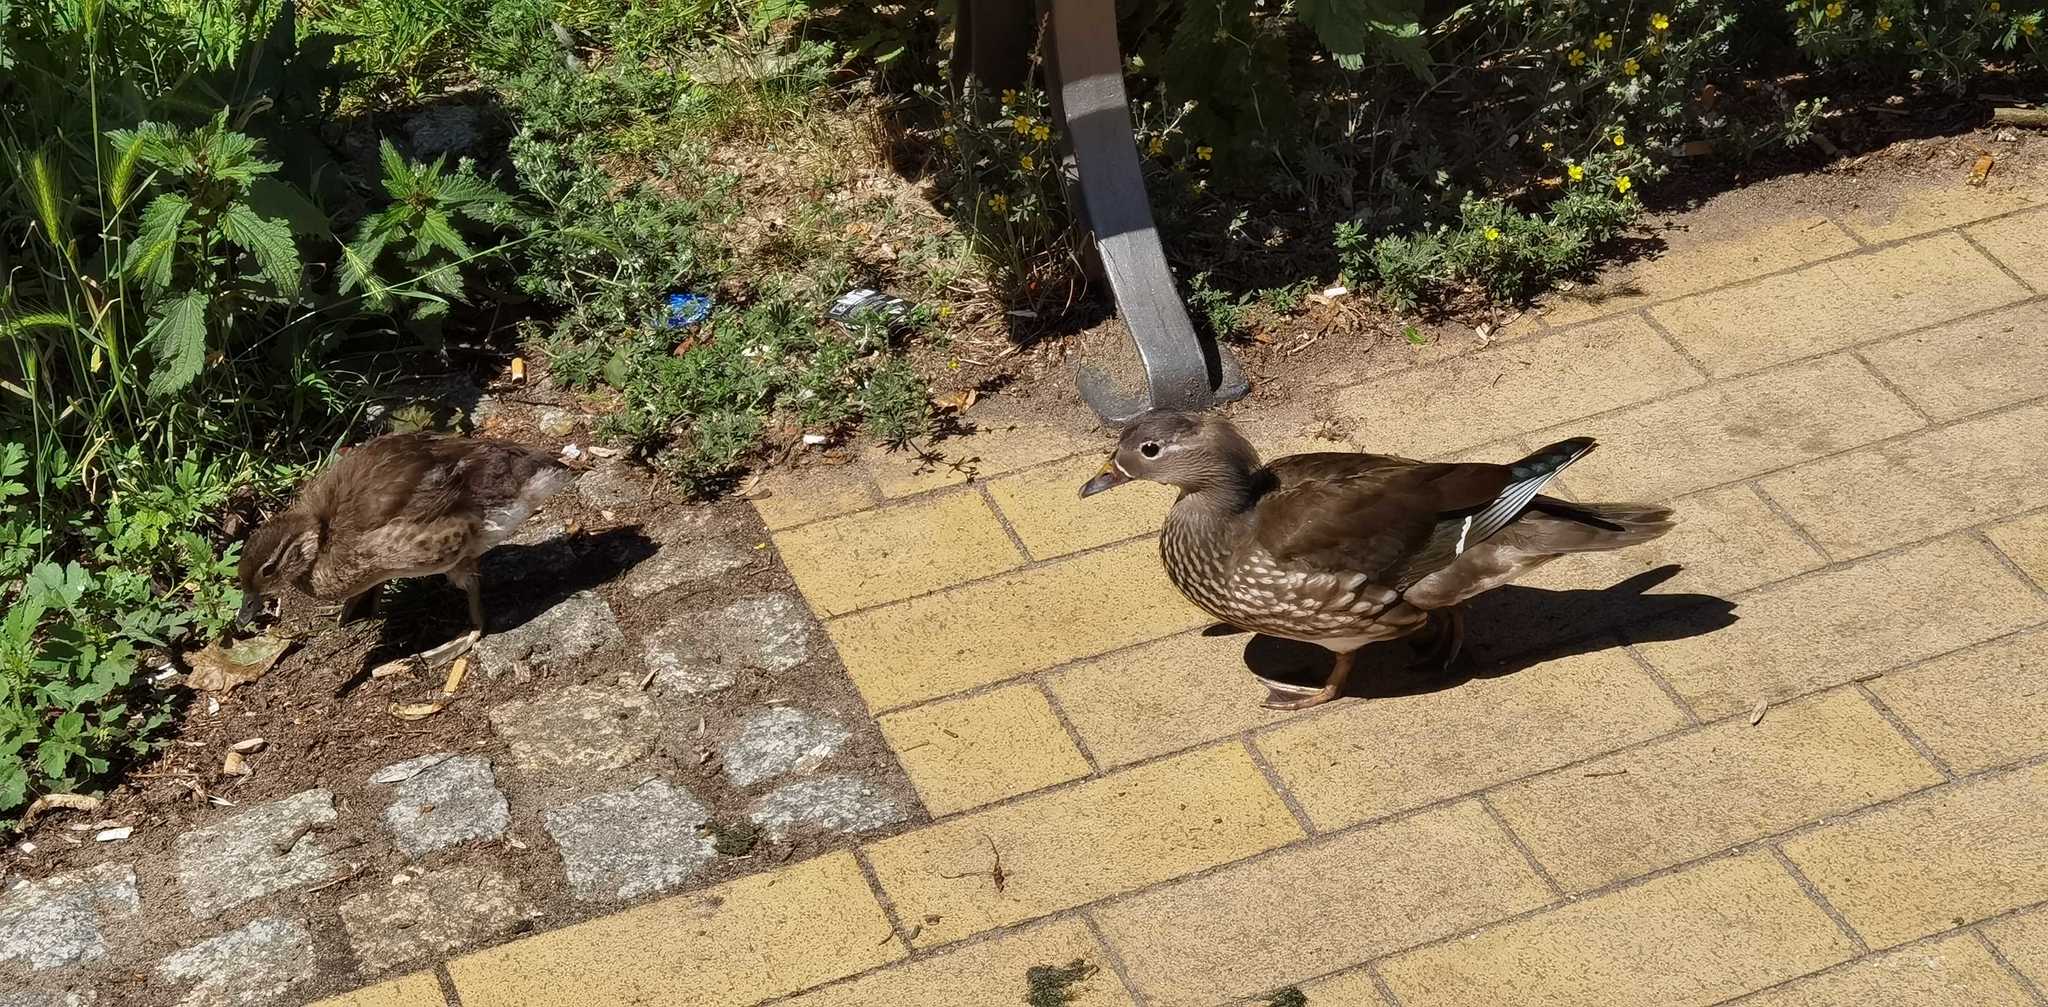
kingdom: Animalia
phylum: Chordata
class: Aves
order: Anseriformes
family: Anatidae
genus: Aix
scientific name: Aix galericulata
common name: Mandarin duck
